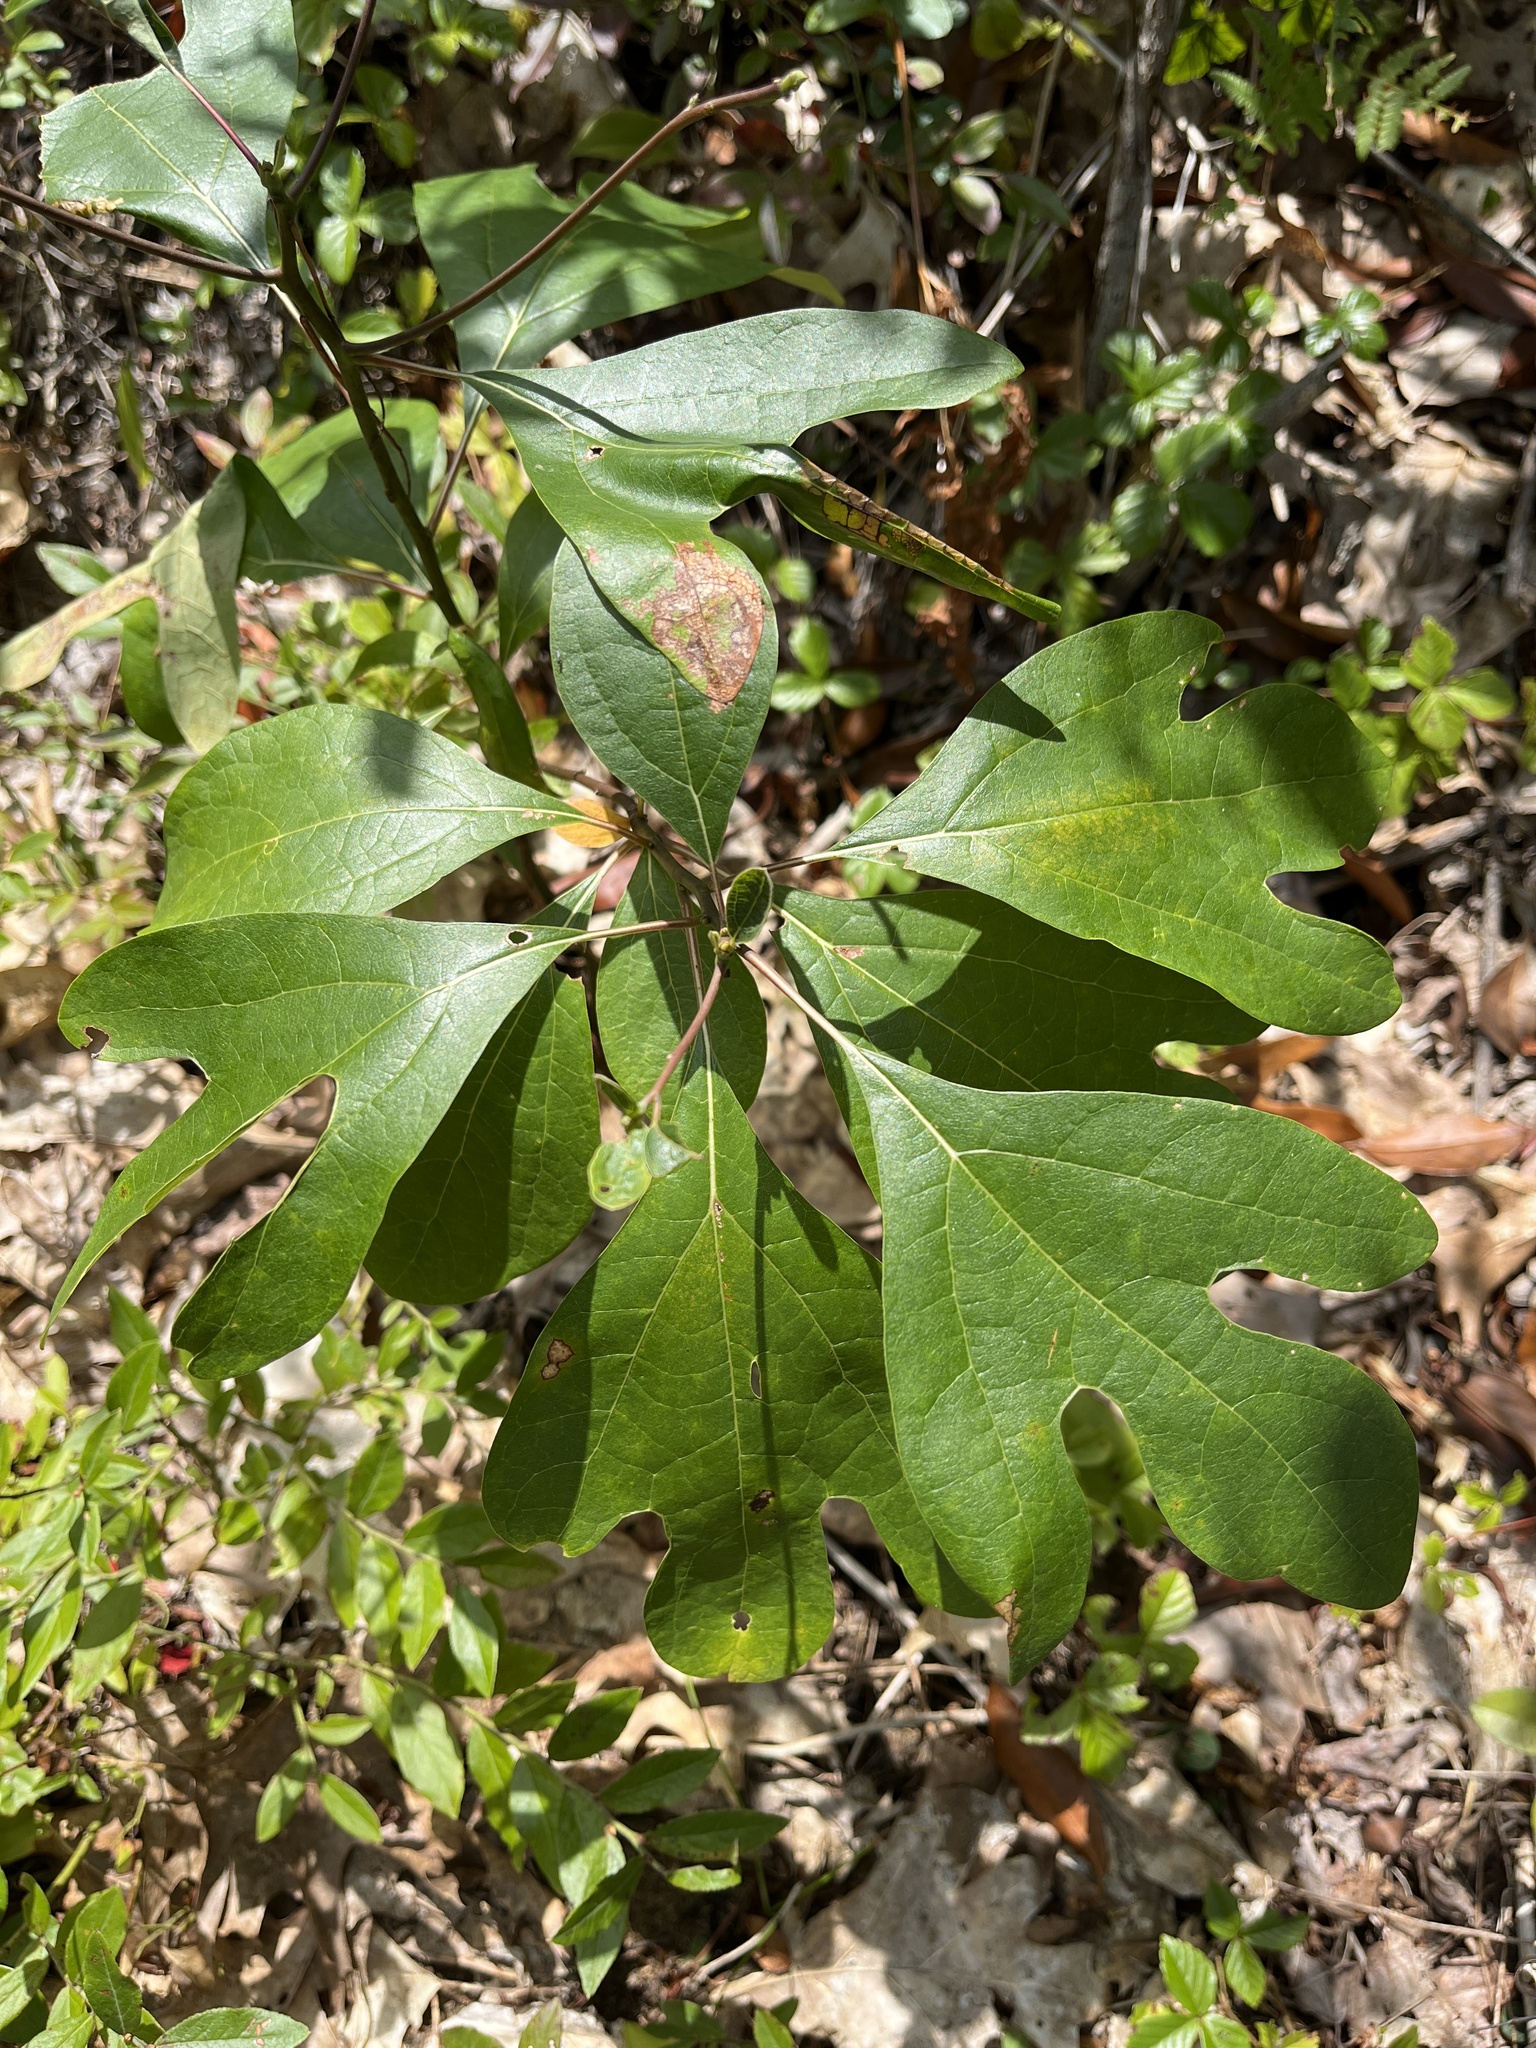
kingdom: Plantae
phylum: Tracheophyta
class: Magnoliopsida
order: Laurales
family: Lauraceae
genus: Sassafras
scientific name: Sassafras albidum
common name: Sassafras
